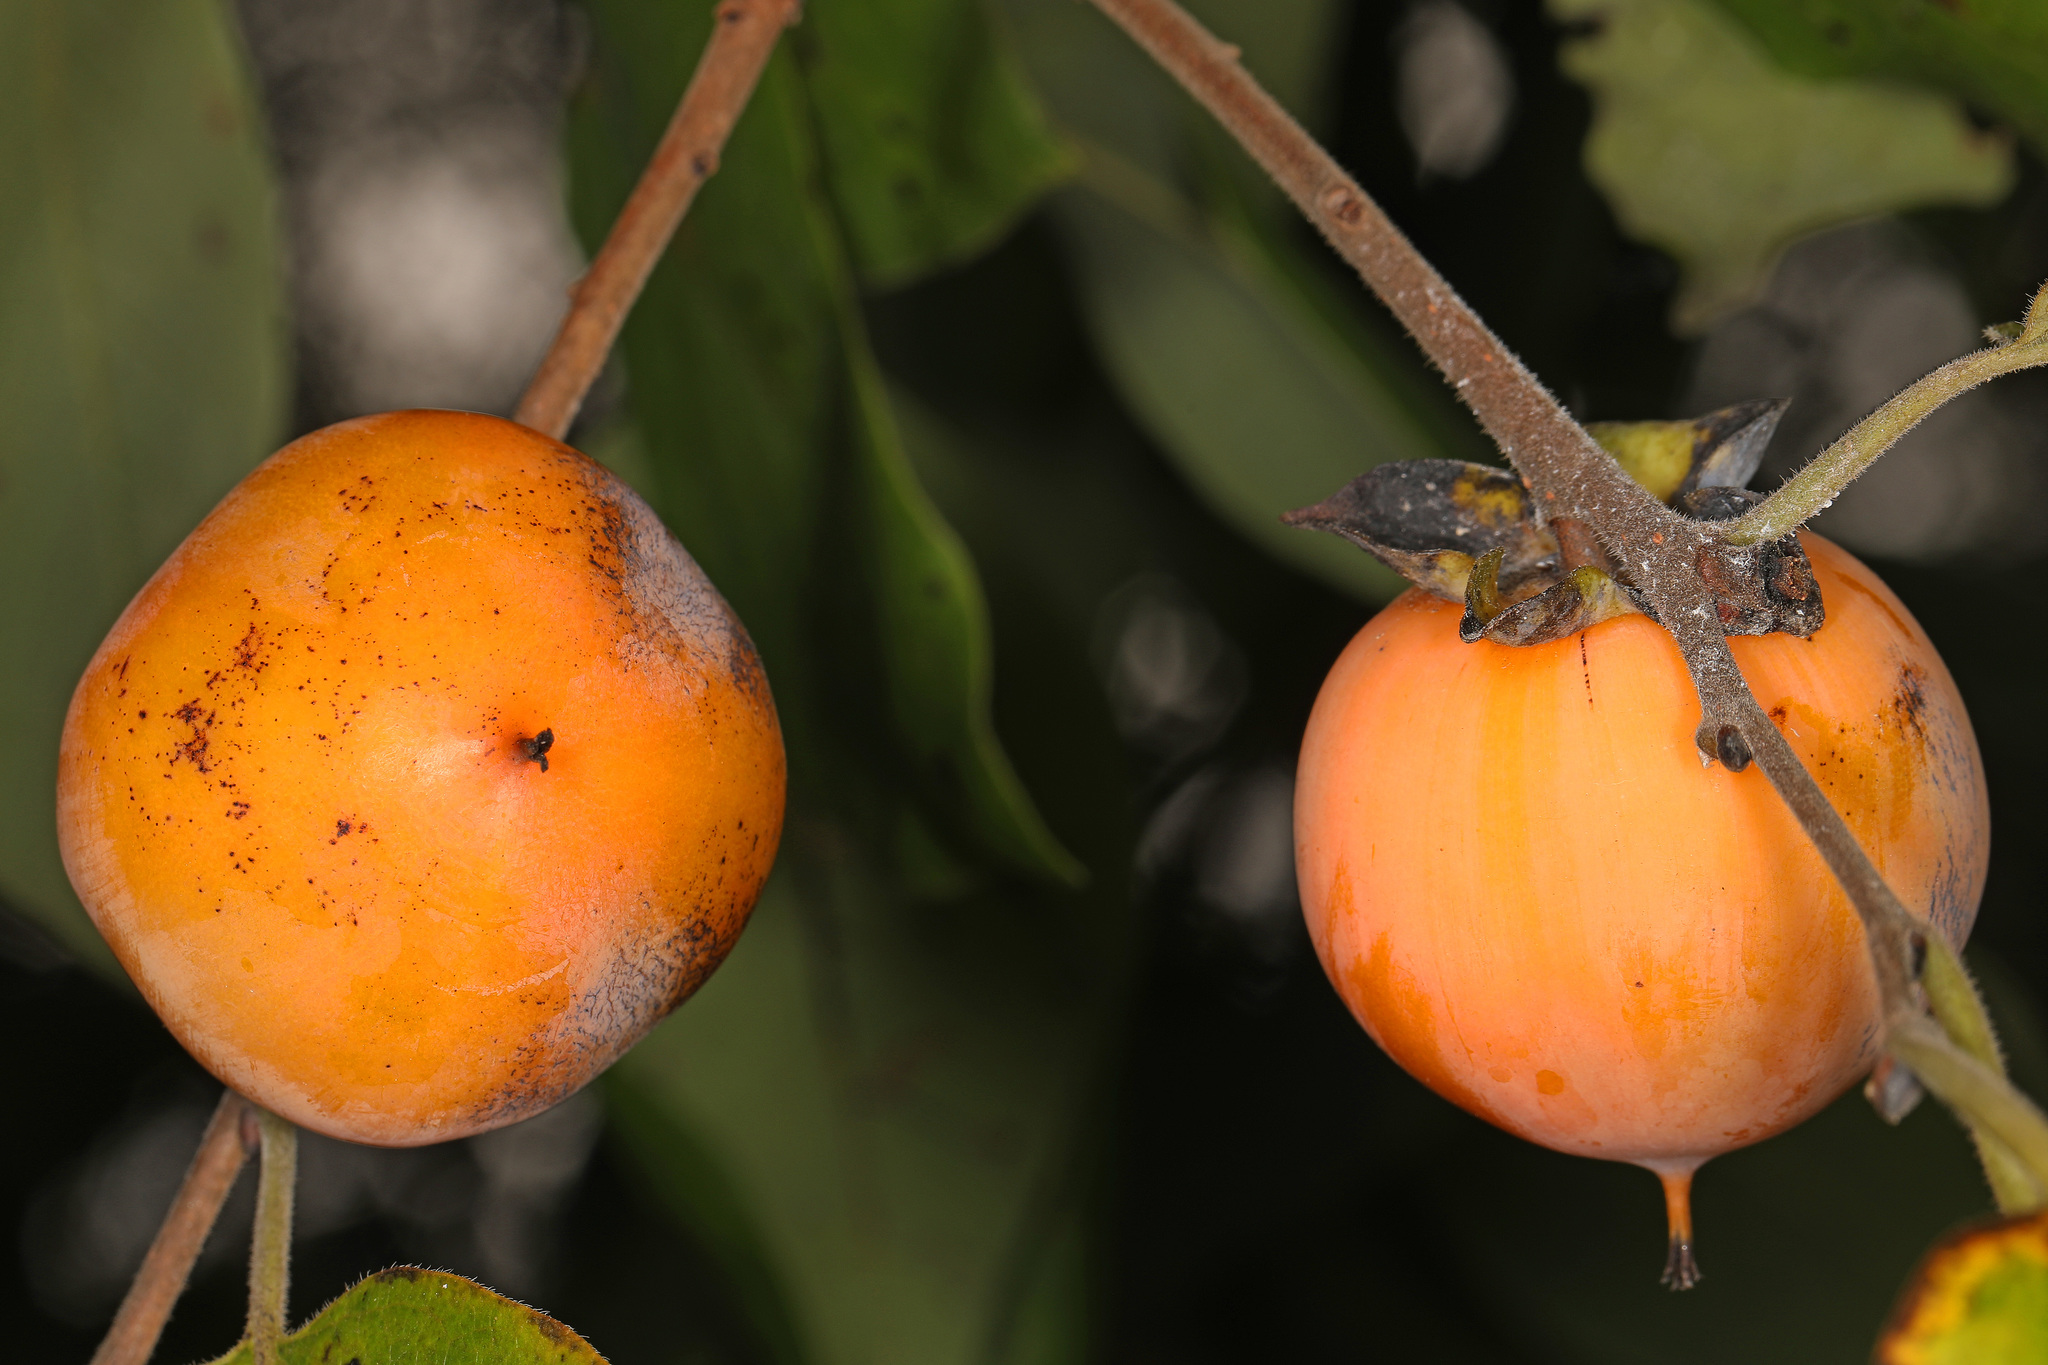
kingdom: Plantae
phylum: Tracheophyta
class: Magnoliopsida
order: Ericales
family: Ebenaceae
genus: Diospyros
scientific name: Diospyros virginiana
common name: Persimmon
